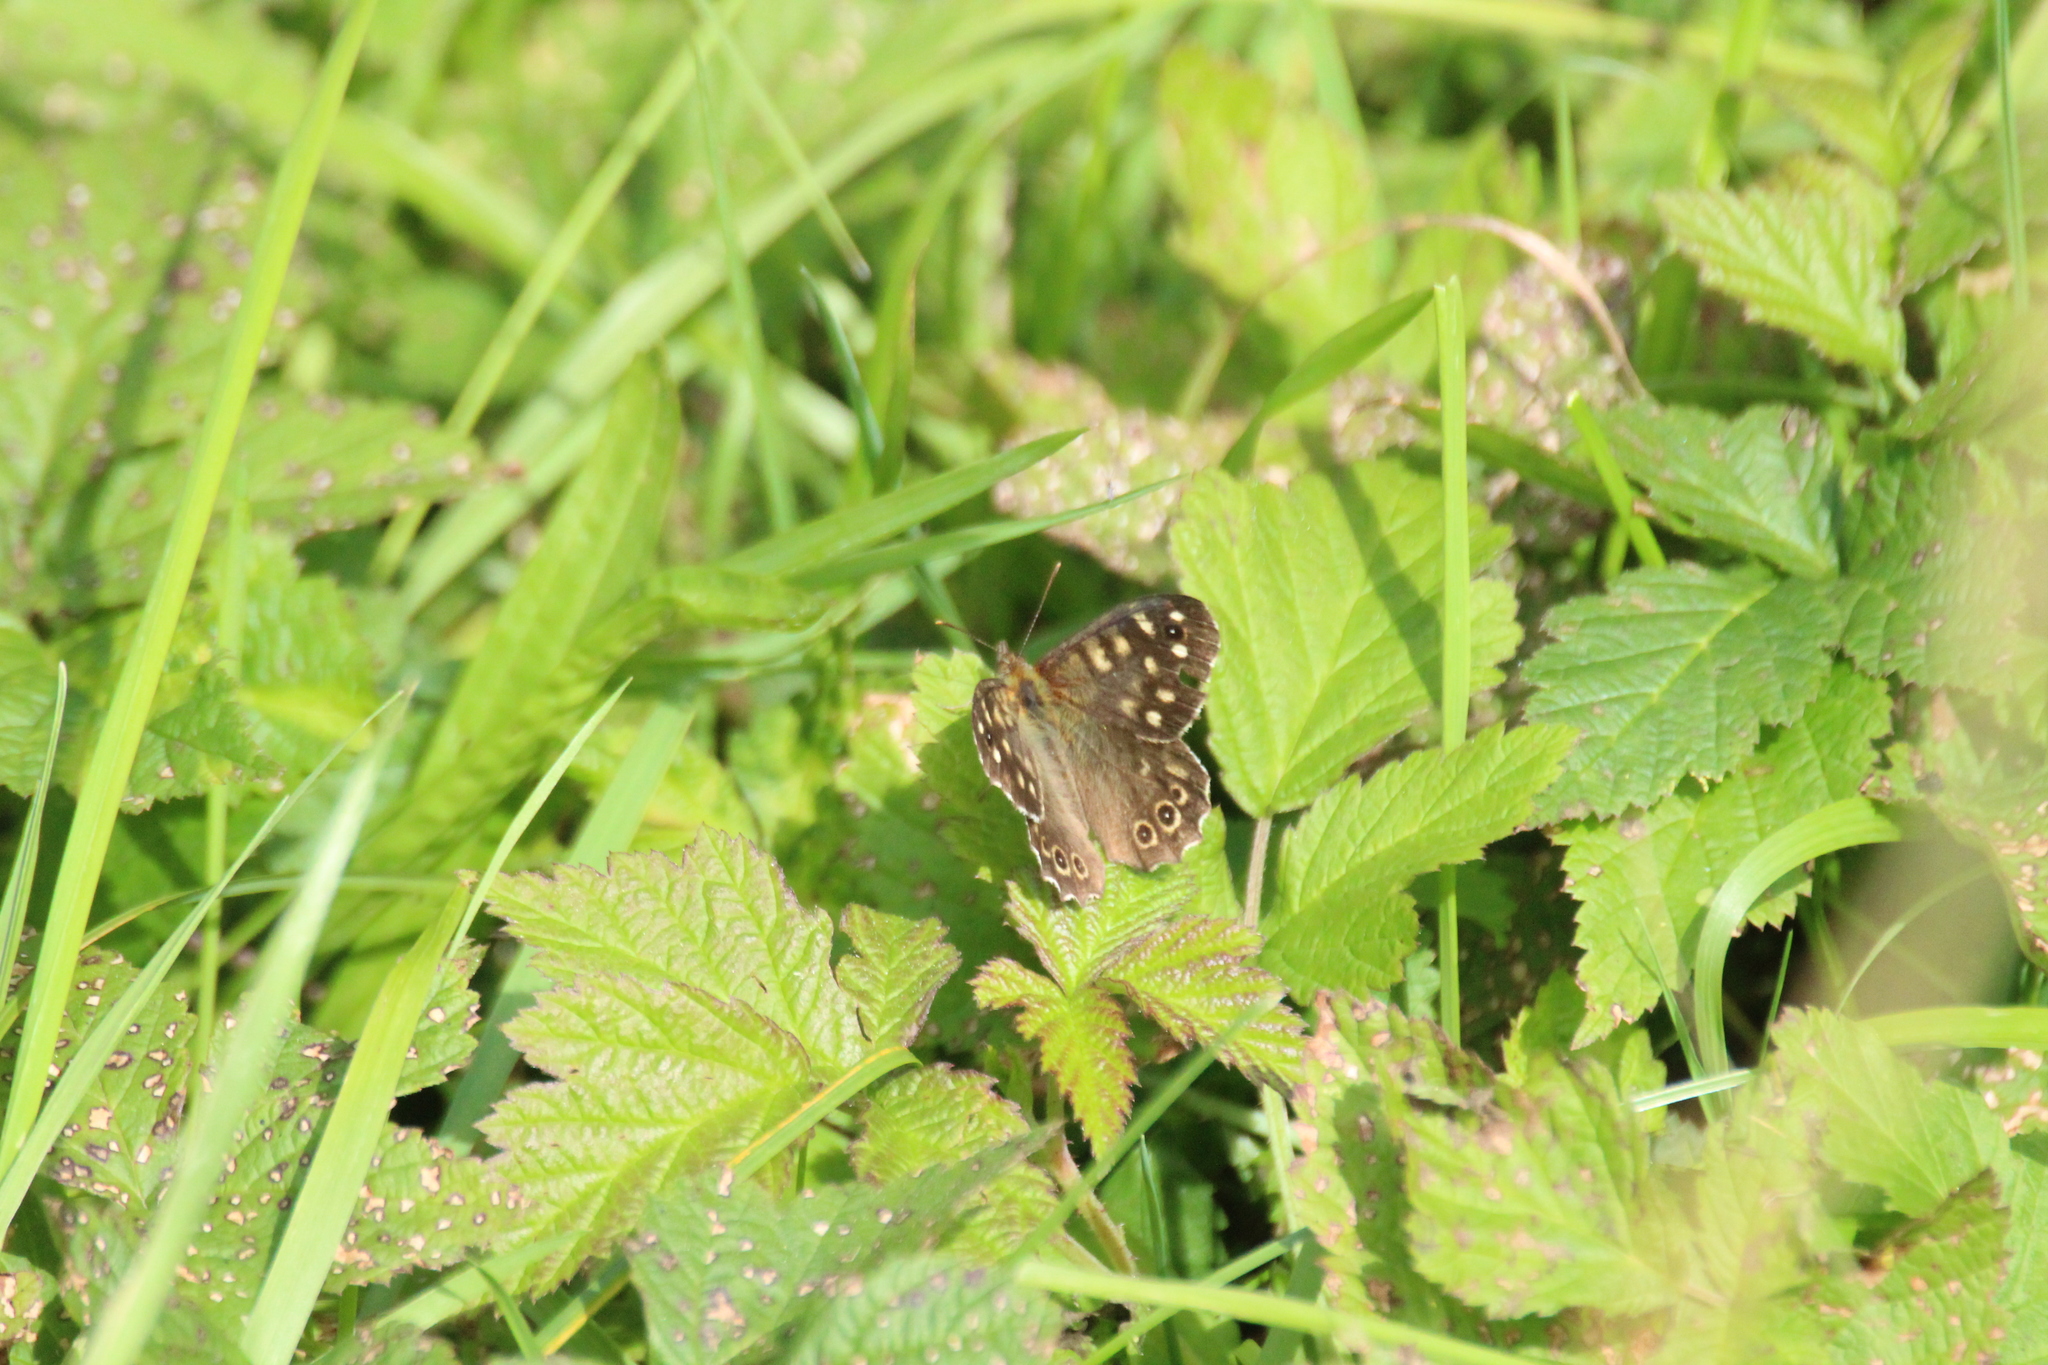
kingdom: Animalia
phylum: Arthropoda
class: Insecta
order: Lepidoptera
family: Nymphalidae
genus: Pararge
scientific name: Pararge aegeria
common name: Speckled wood
